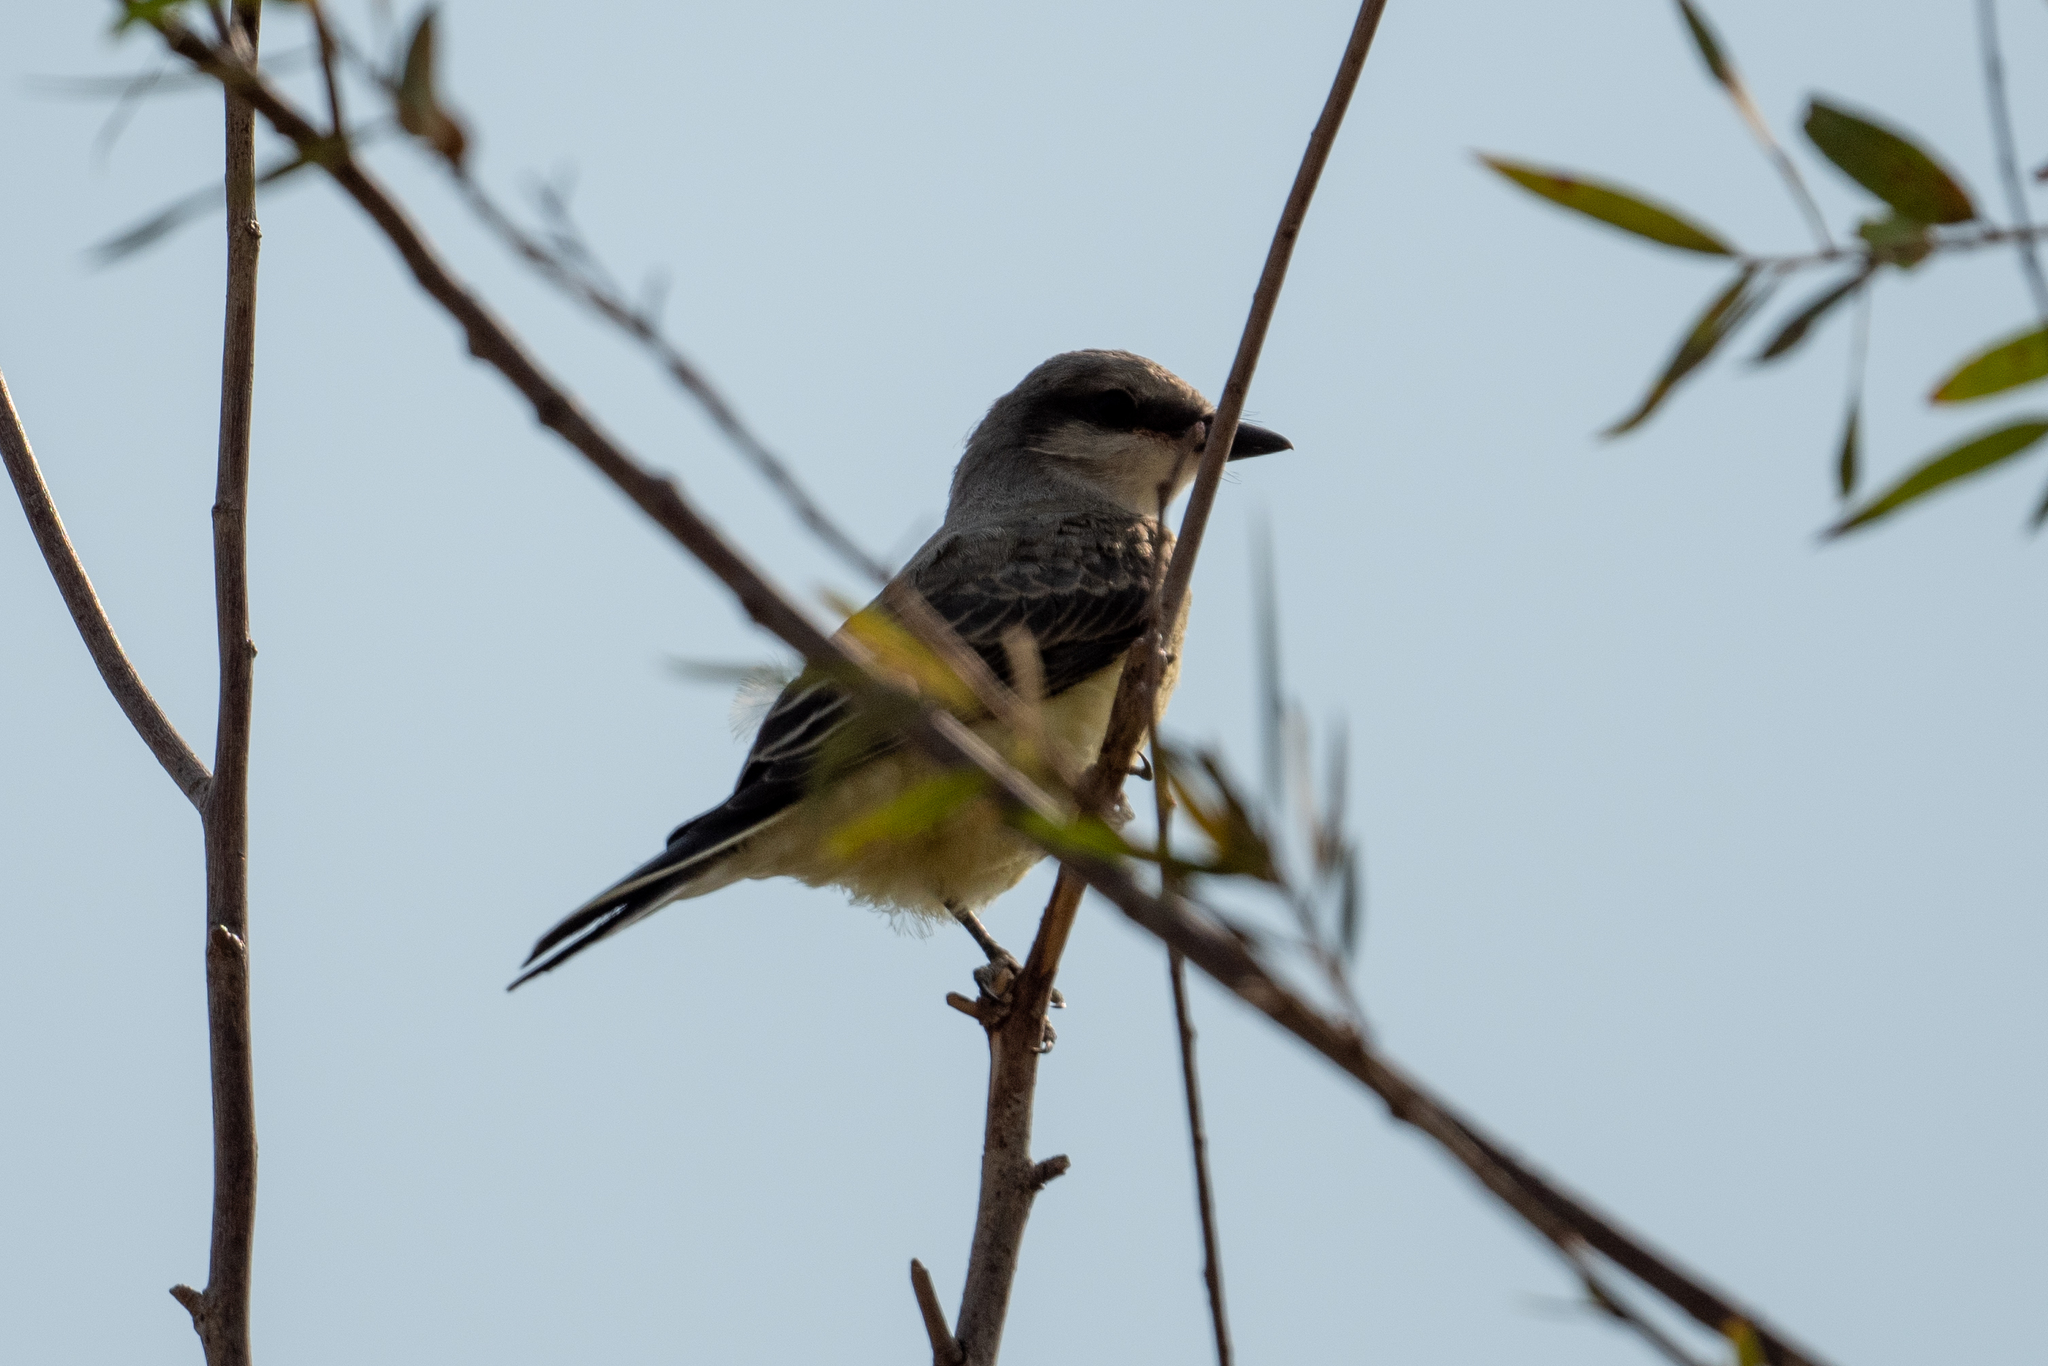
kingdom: Animalia
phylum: Chordata
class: Aves
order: Passeriformes
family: Tyrannidae
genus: Tyrannus
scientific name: Tyrannus verticalis
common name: Western kingbird
